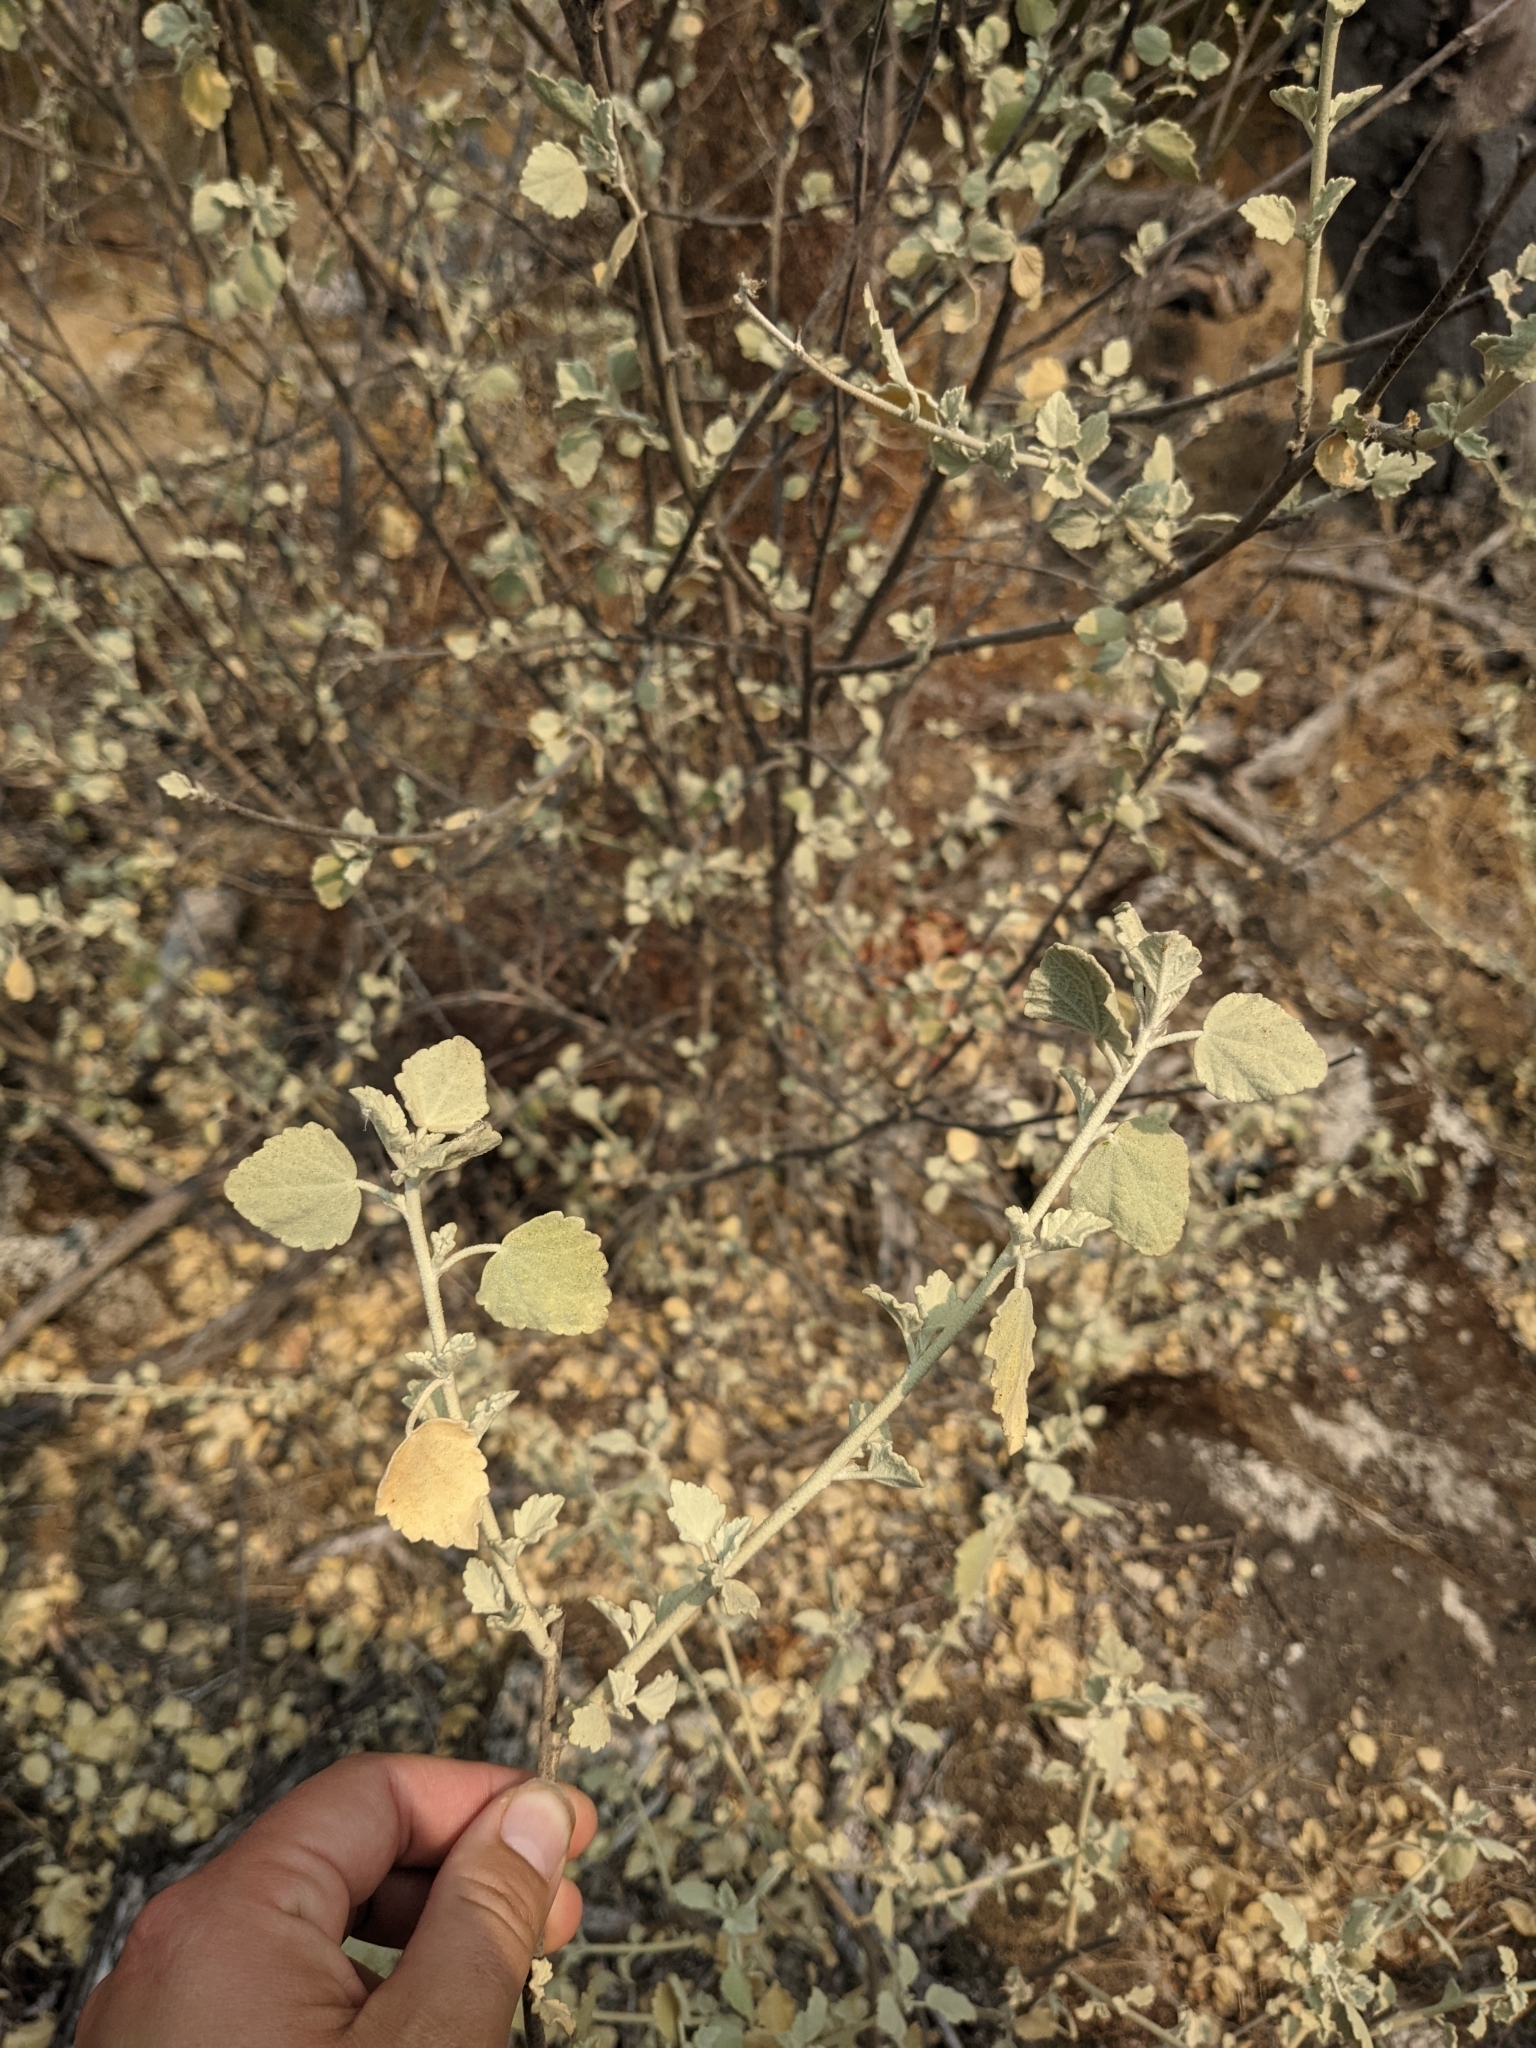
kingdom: Plantae
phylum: Tracheophyta
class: Magnoliopsida
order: Malvales
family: Malvaceae
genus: Malacothamnus
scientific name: Malacothamnus jonesii
